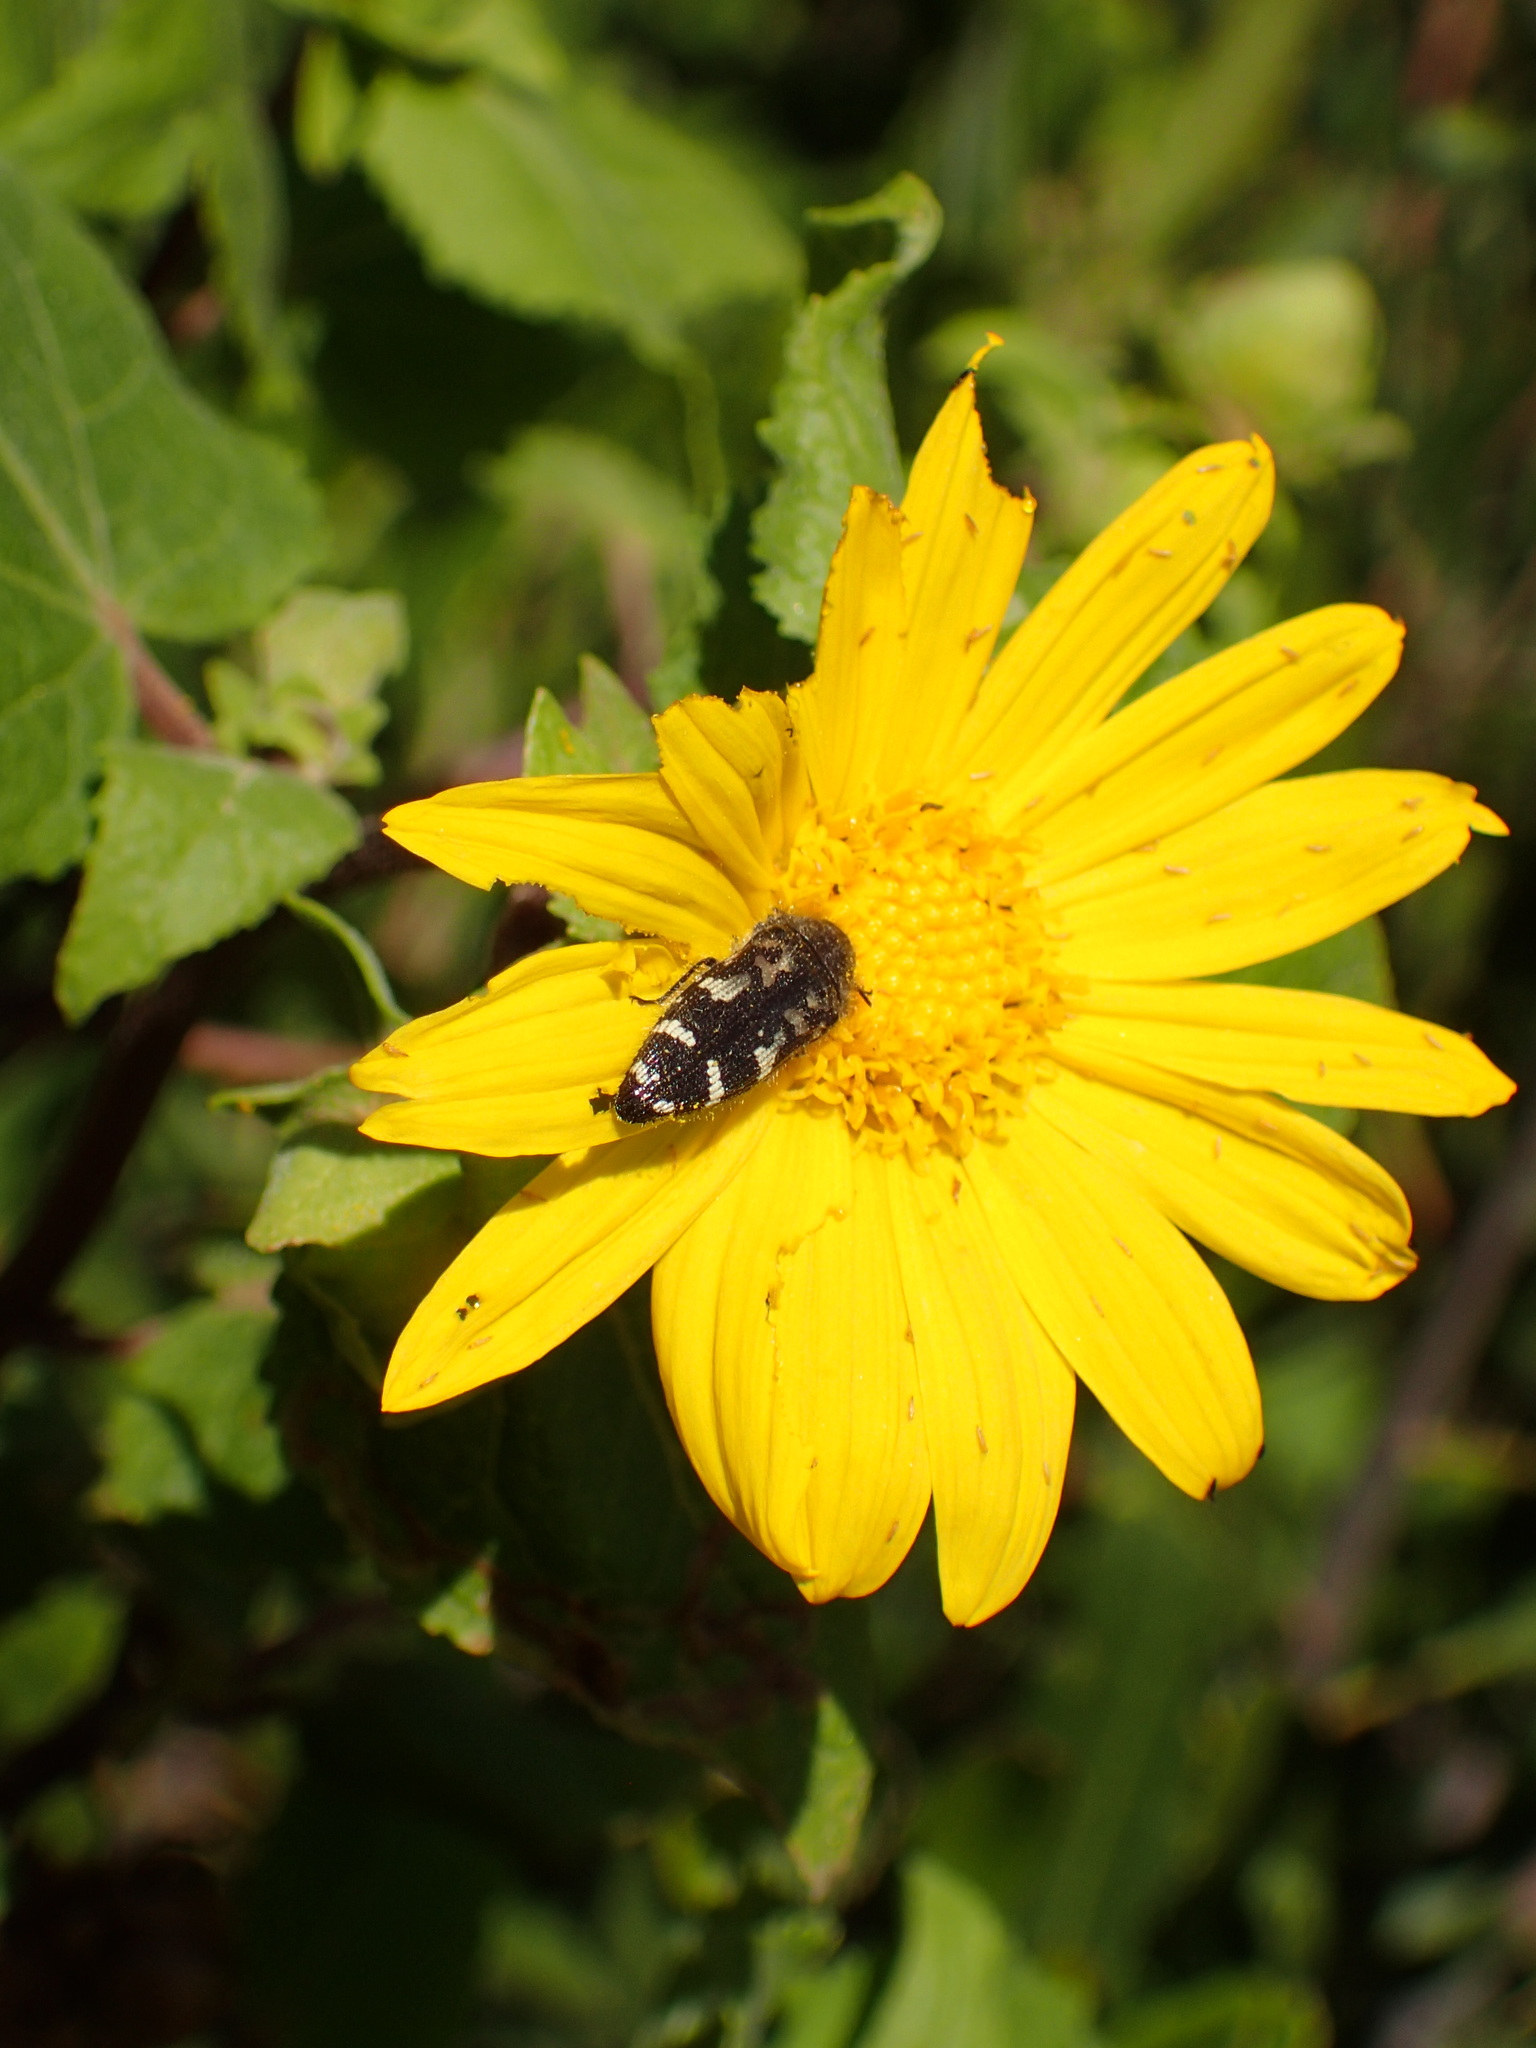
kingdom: Plantae
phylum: Tracheophyta
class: Magnoliopsida
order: Asterales
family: Asteraceae
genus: Venegasia
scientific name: Venegasia carpesioides
